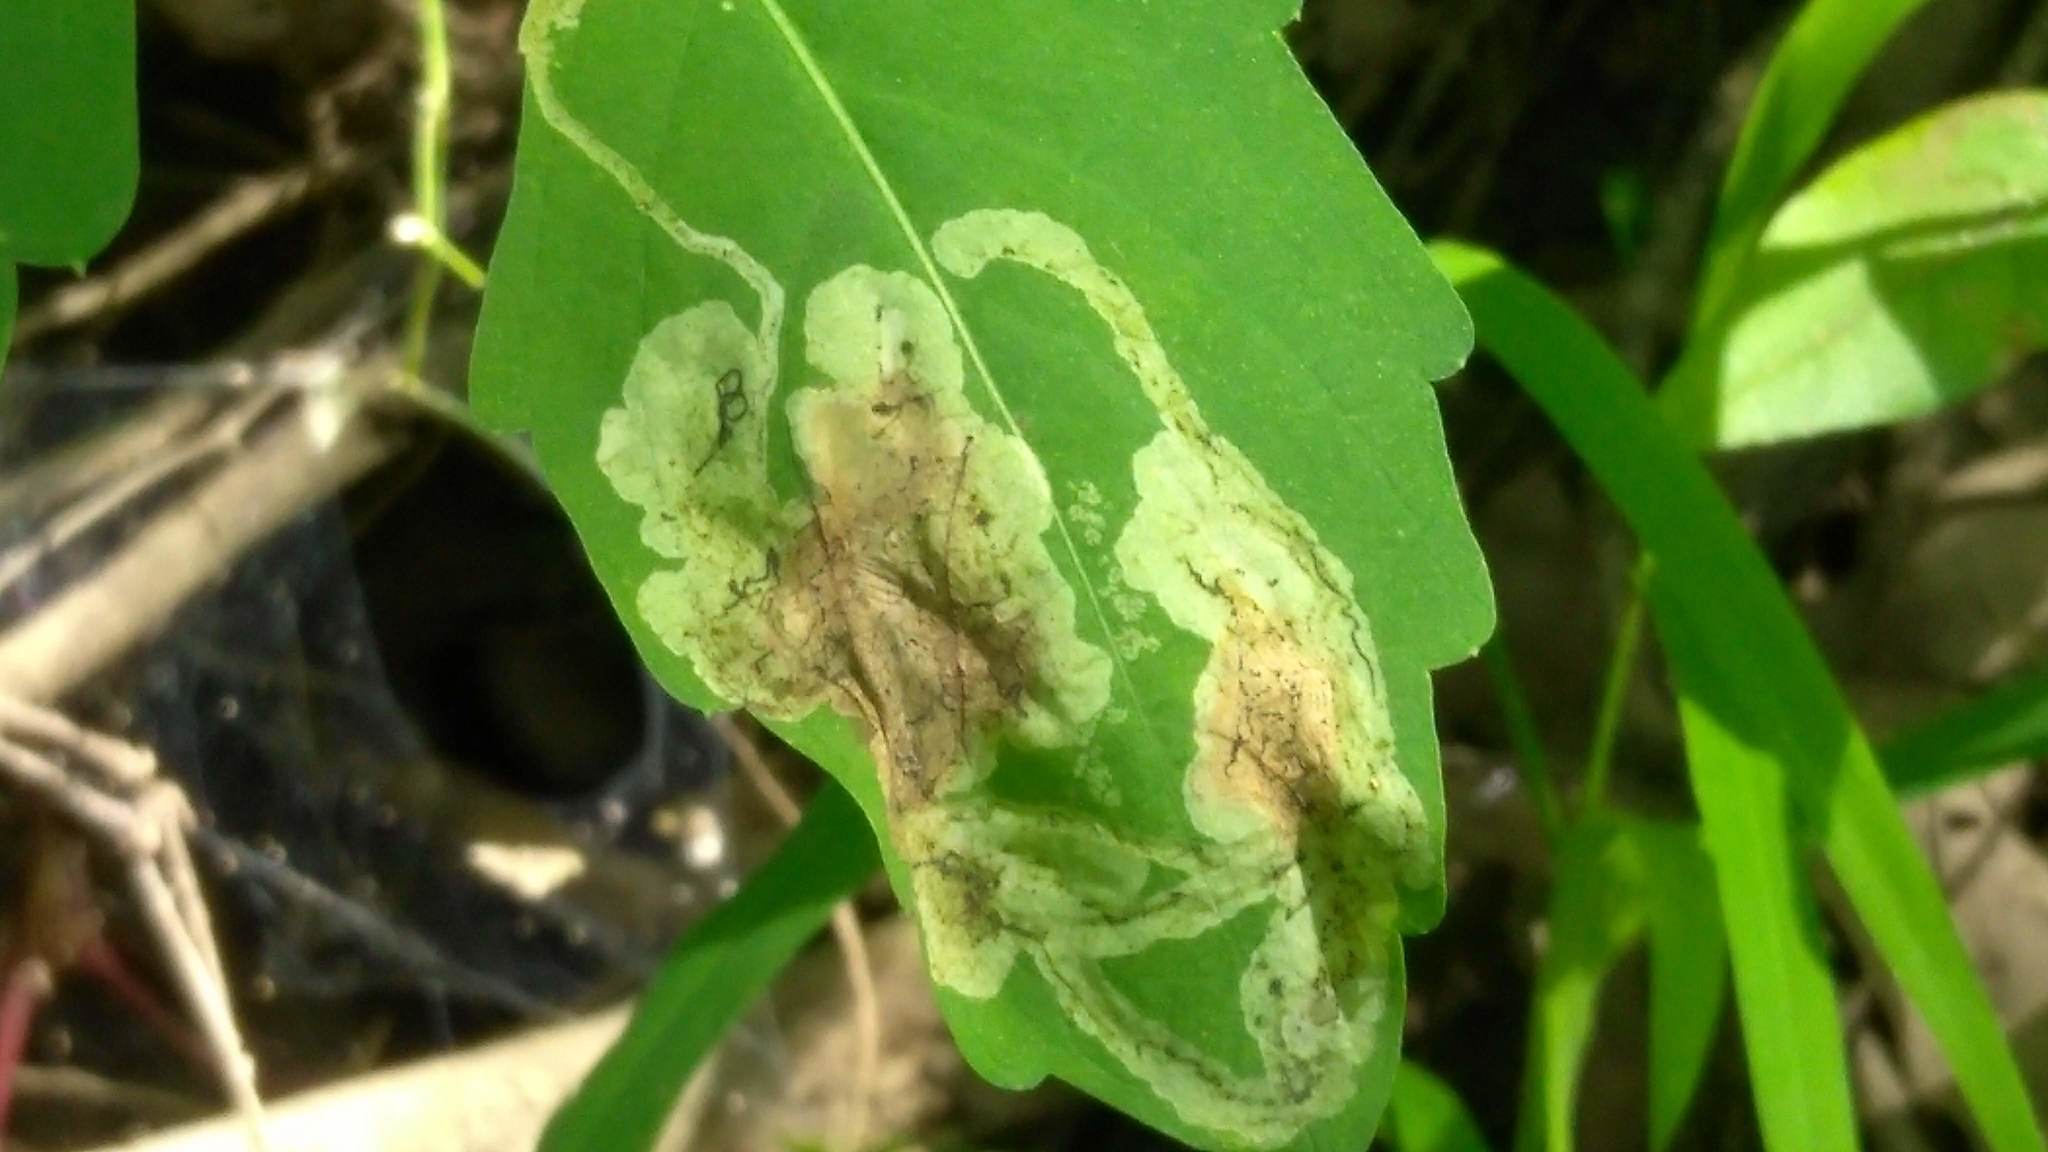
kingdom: Animalia
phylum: Arthropoda
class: Insecta
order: Diptera
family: Agromyzidae
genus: Phytoliriomyza
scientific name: Phytoliriomyza melampyga
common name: Jewelweed leaf-miner fly
